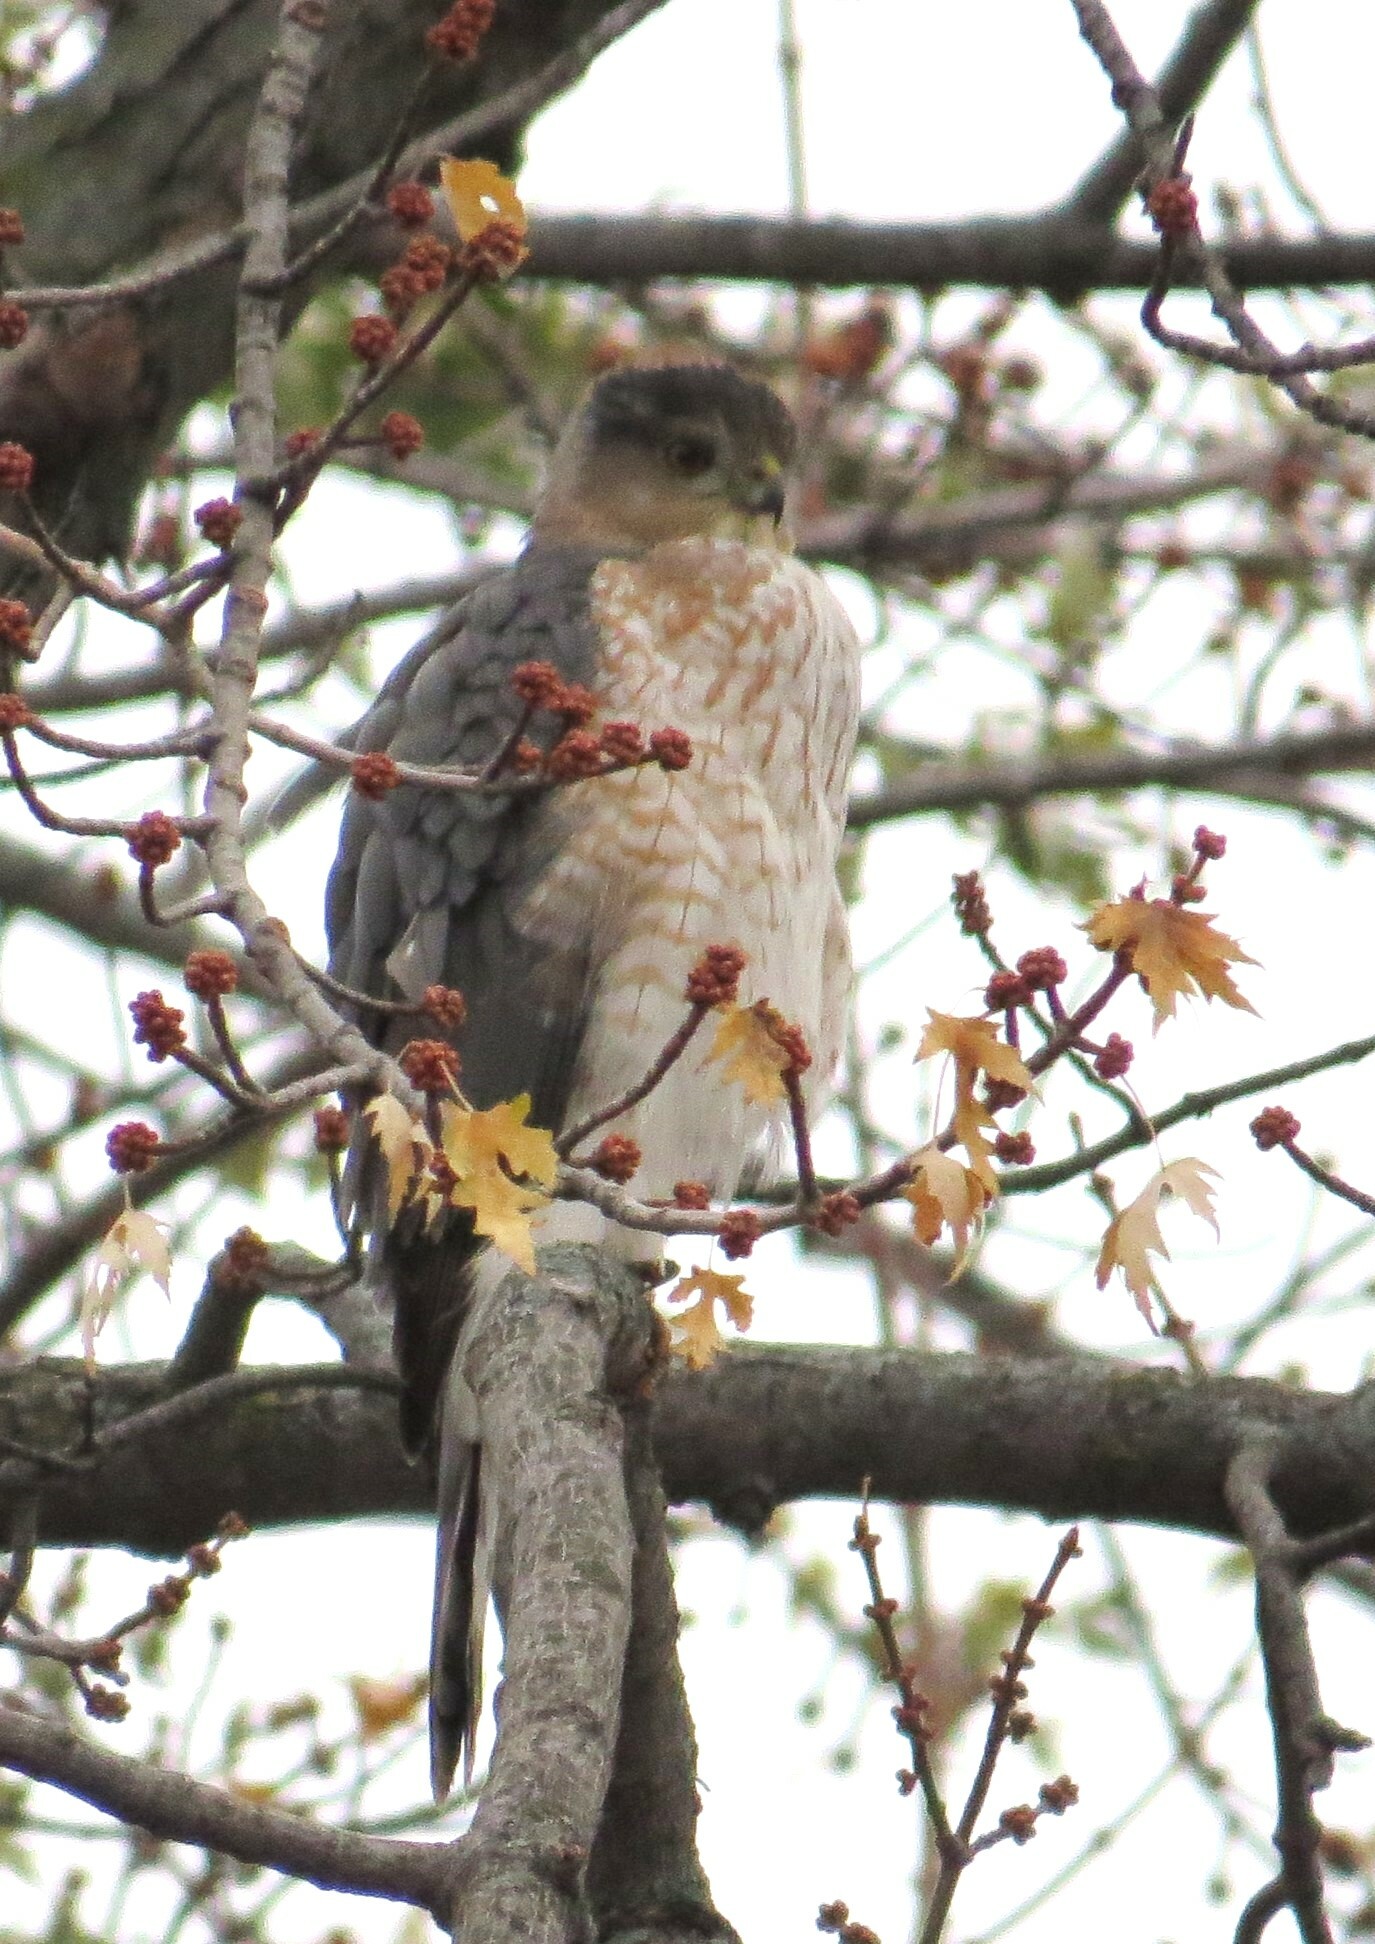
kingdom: Animalia
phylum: Chordata
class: Aves
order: Accipitriformes
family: Accipitridae
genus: Accipiter
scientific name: Accipiter cooperii
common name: Cooper's hawk
